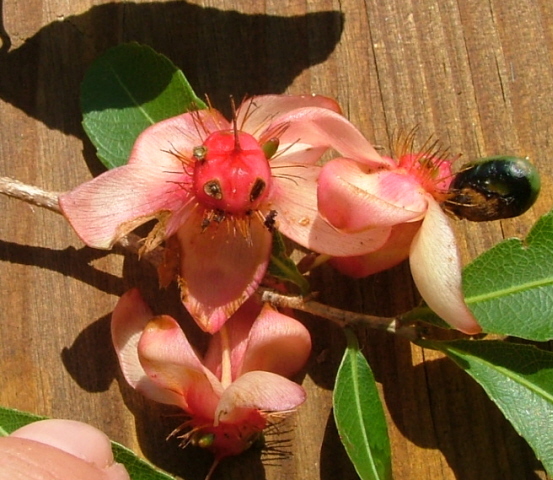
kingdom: Plantae
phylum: Tracheophyta
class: Magnoliopsida
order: Malpighiales
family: Ochnaceae
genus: Ochna
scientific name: Ochna pulchra
